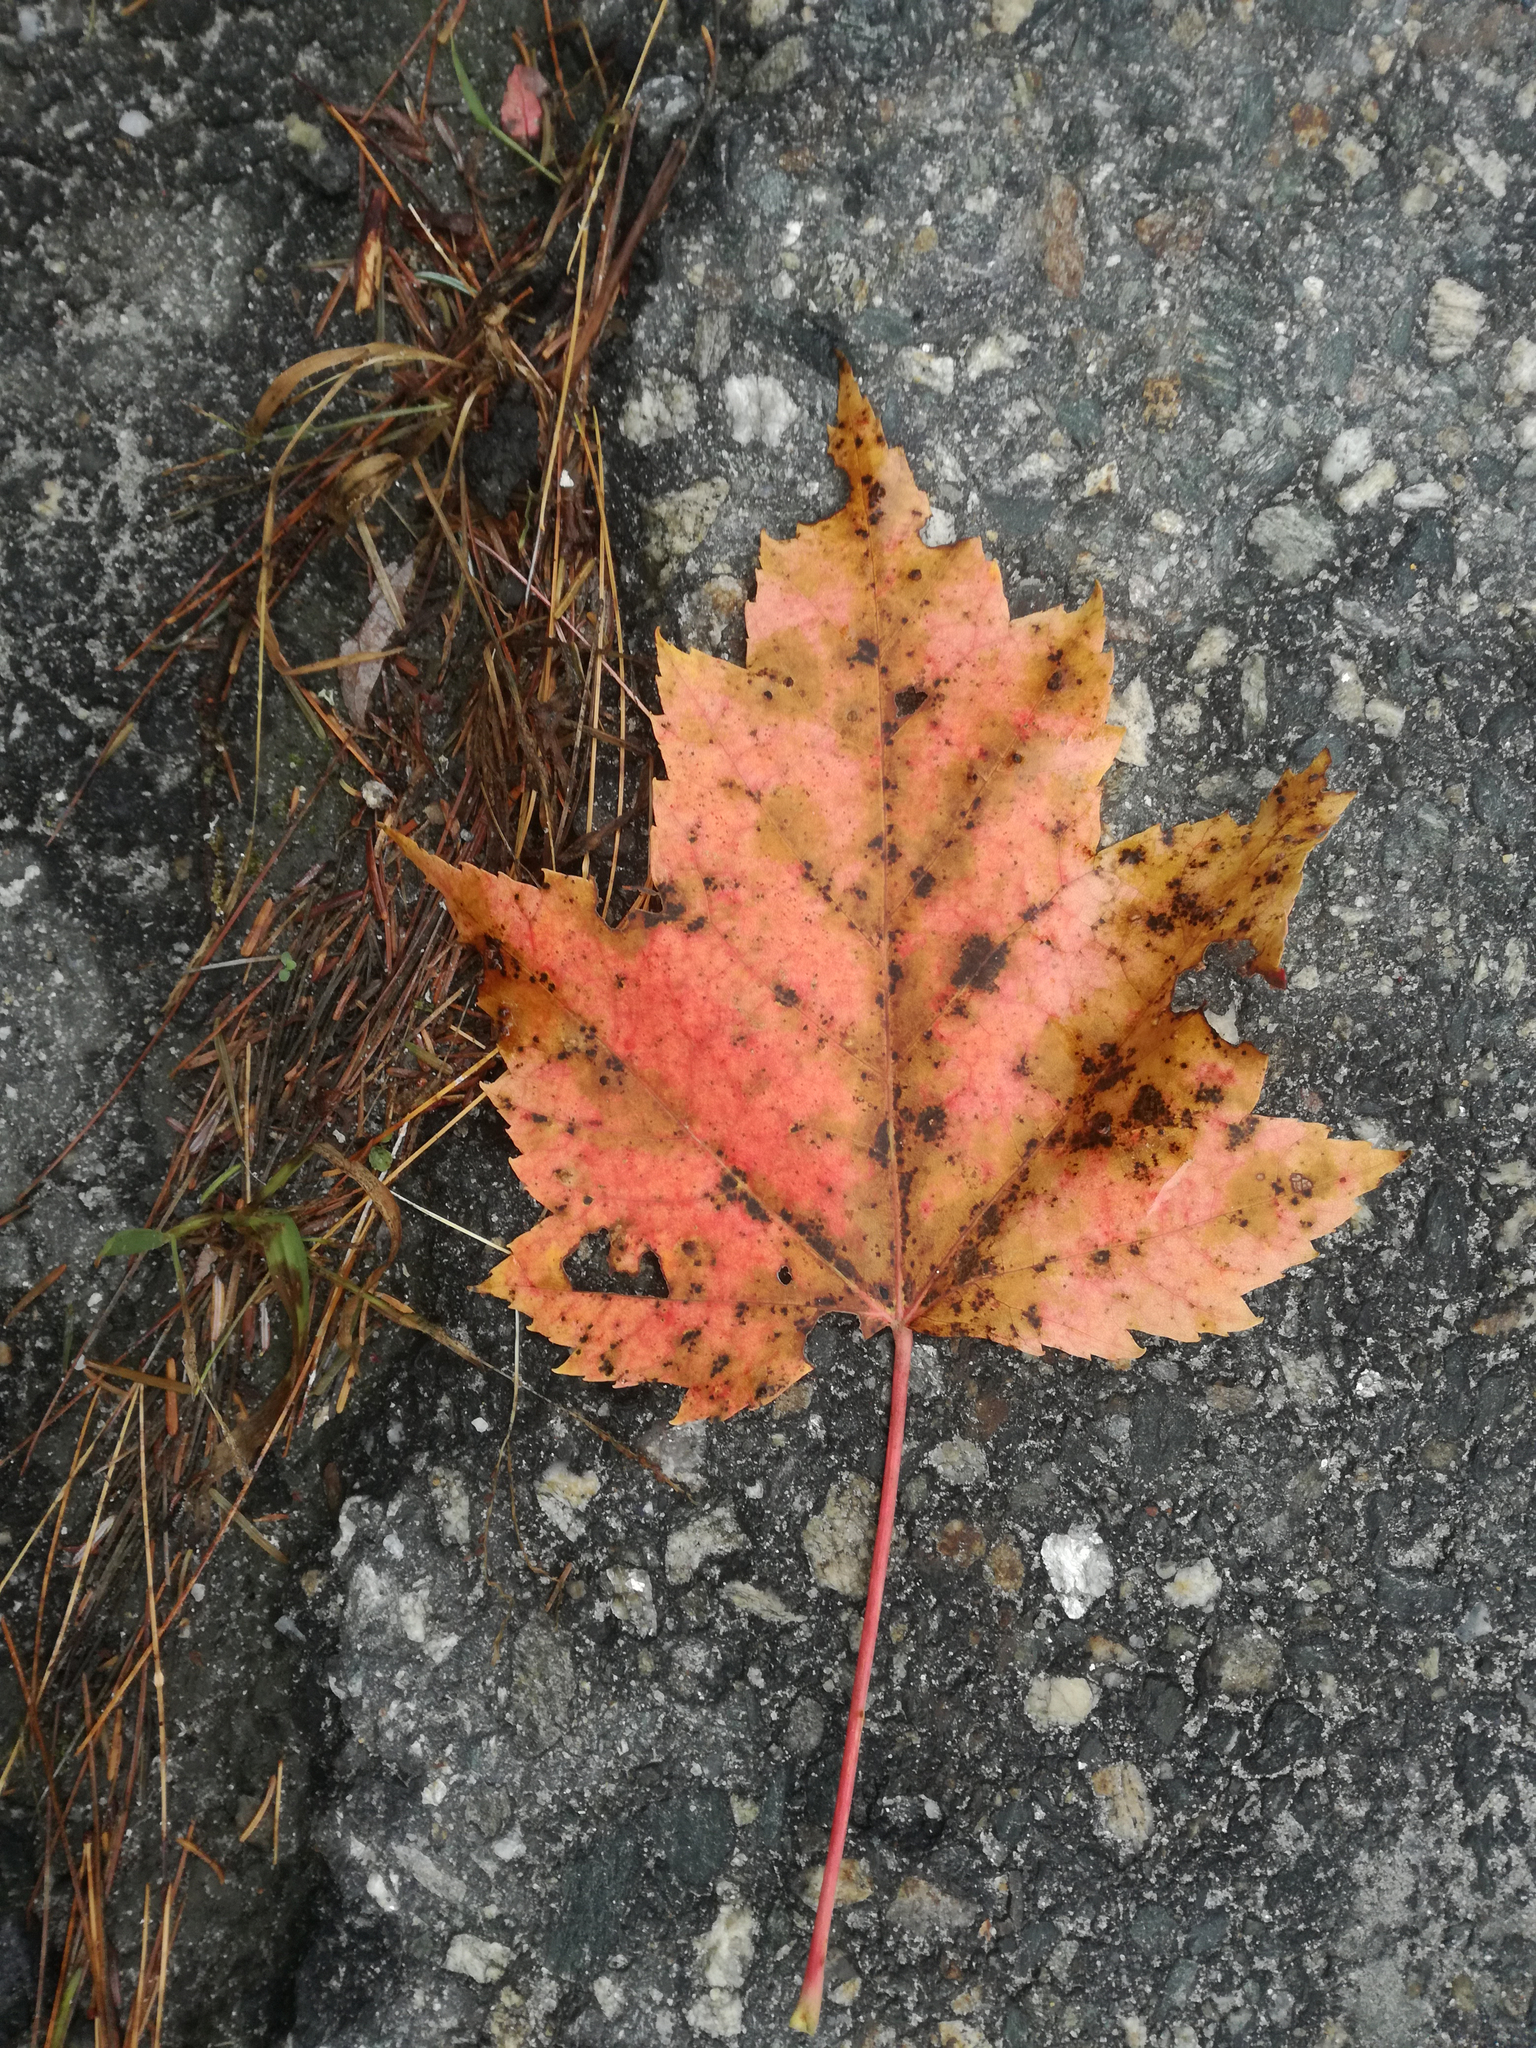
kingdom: Plantae
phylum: Tracheophyta
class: Magnoliopsida
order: Sapindales
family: Sapindaceae
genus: Acer
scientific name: Acer rubrum
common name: Red maple
